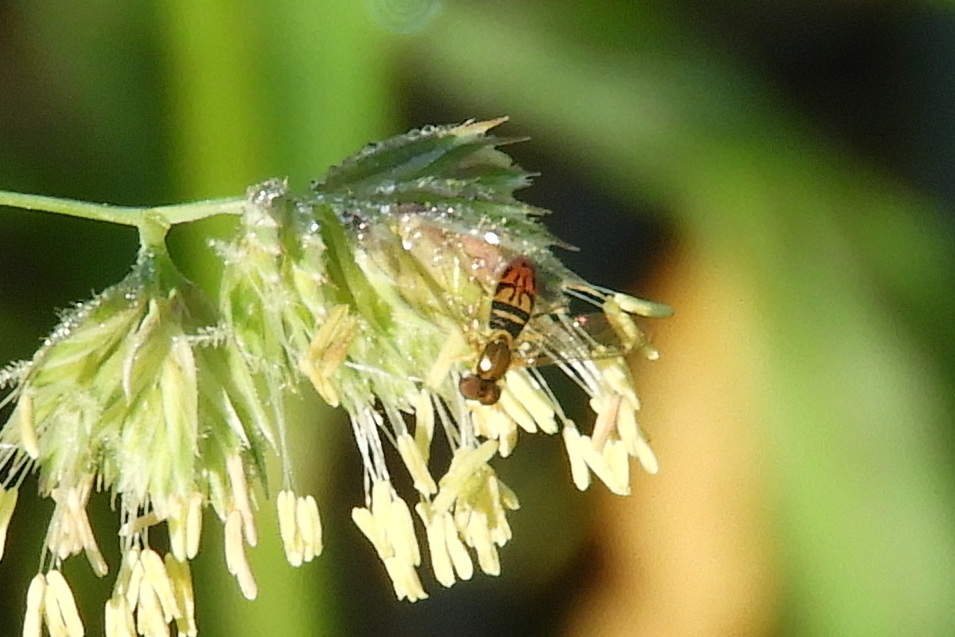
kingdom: Animalia
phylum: Arthropoda
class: Insecta
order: Diptera
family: Syrphidae
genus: Toxomerus
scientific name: Toxomerus marginatus
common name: Syrphid fly
